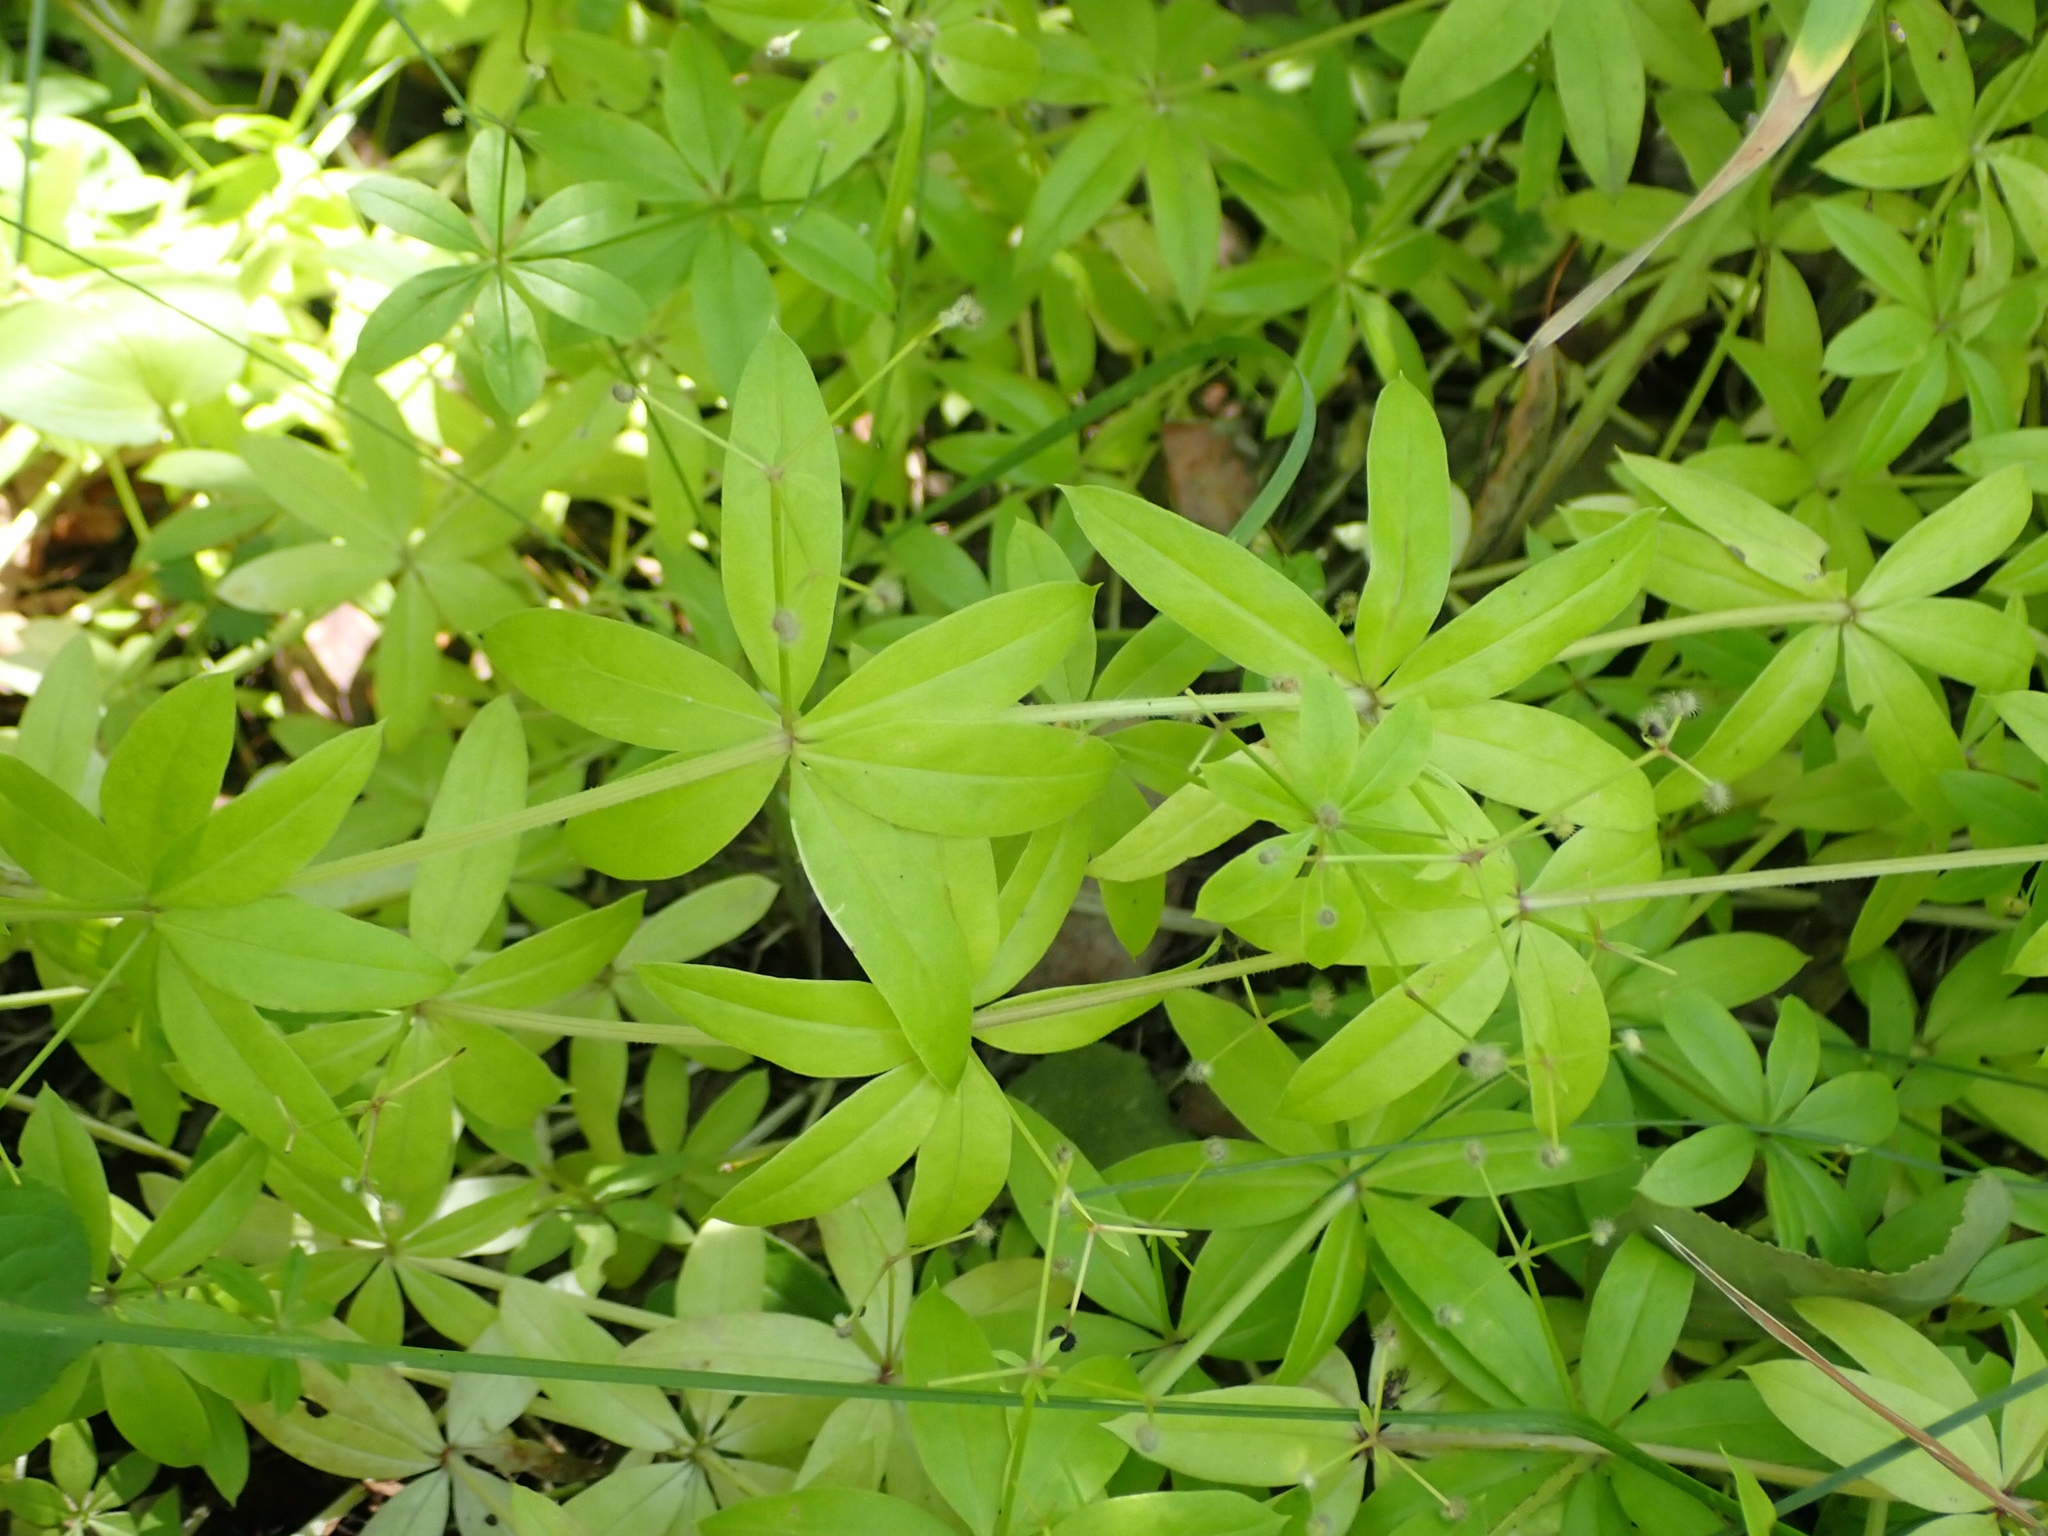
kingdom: Plantae
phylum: Tracheophyta
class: Magnoliopsida
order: Gentianales
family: Rubiaceae
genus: Galium
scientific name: Galium triflorum
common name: Fragrant bedstraw
